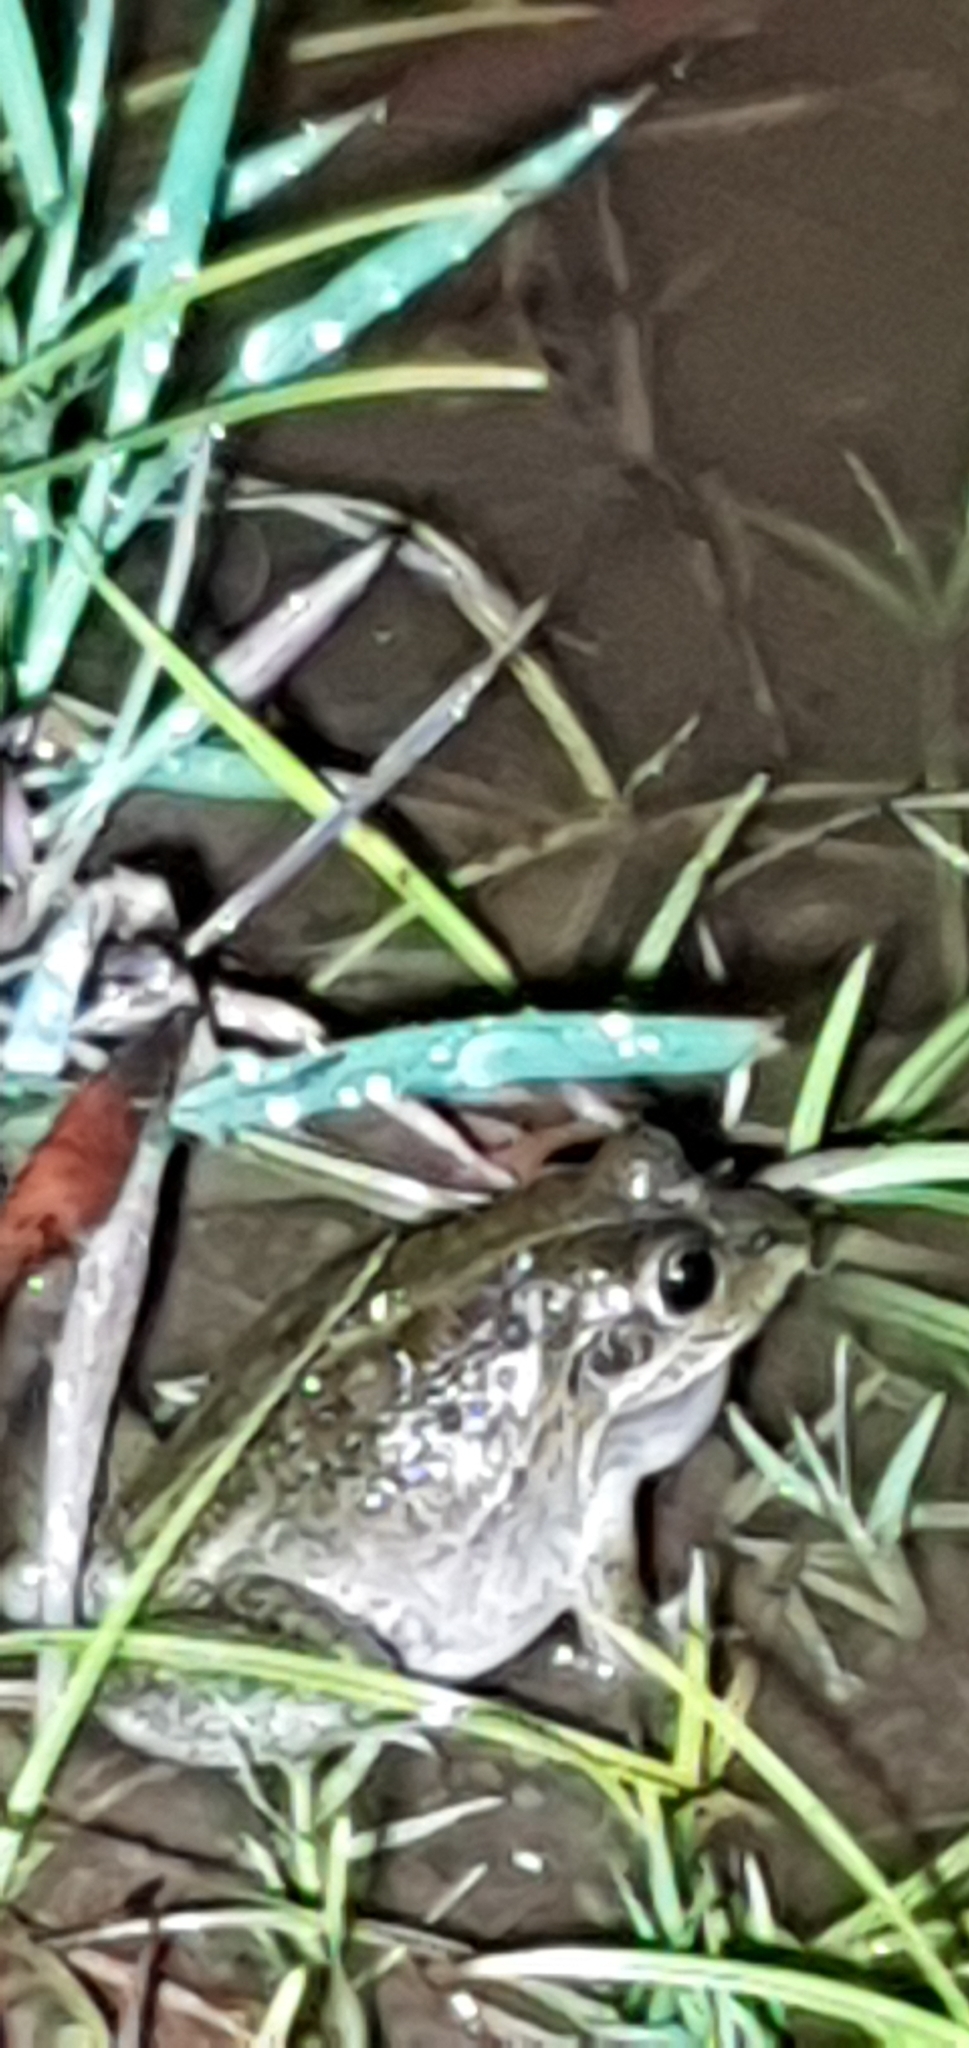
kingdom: Animalia
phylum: Chordata
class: Amphibia
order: Anura
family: Pelodryadidae
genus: Ranoidea
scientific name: Ranoidea alboguttata
